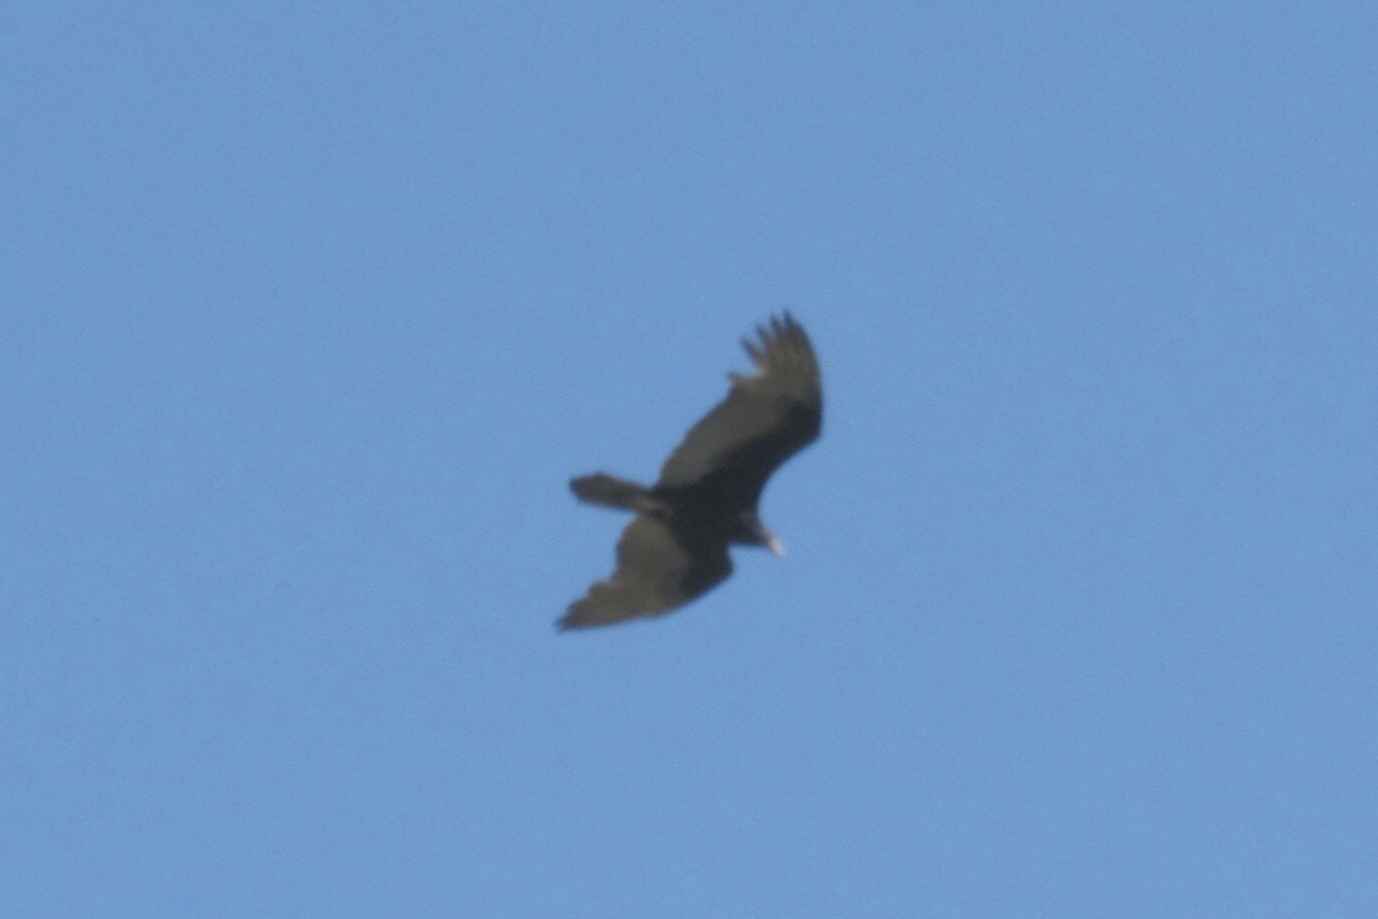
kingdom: Animalia
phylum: Chordata
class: Aves
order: Accipitriformes
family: Cathartidae
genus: Cathartes
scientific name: Cathartes aura
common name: Turkey vulture
